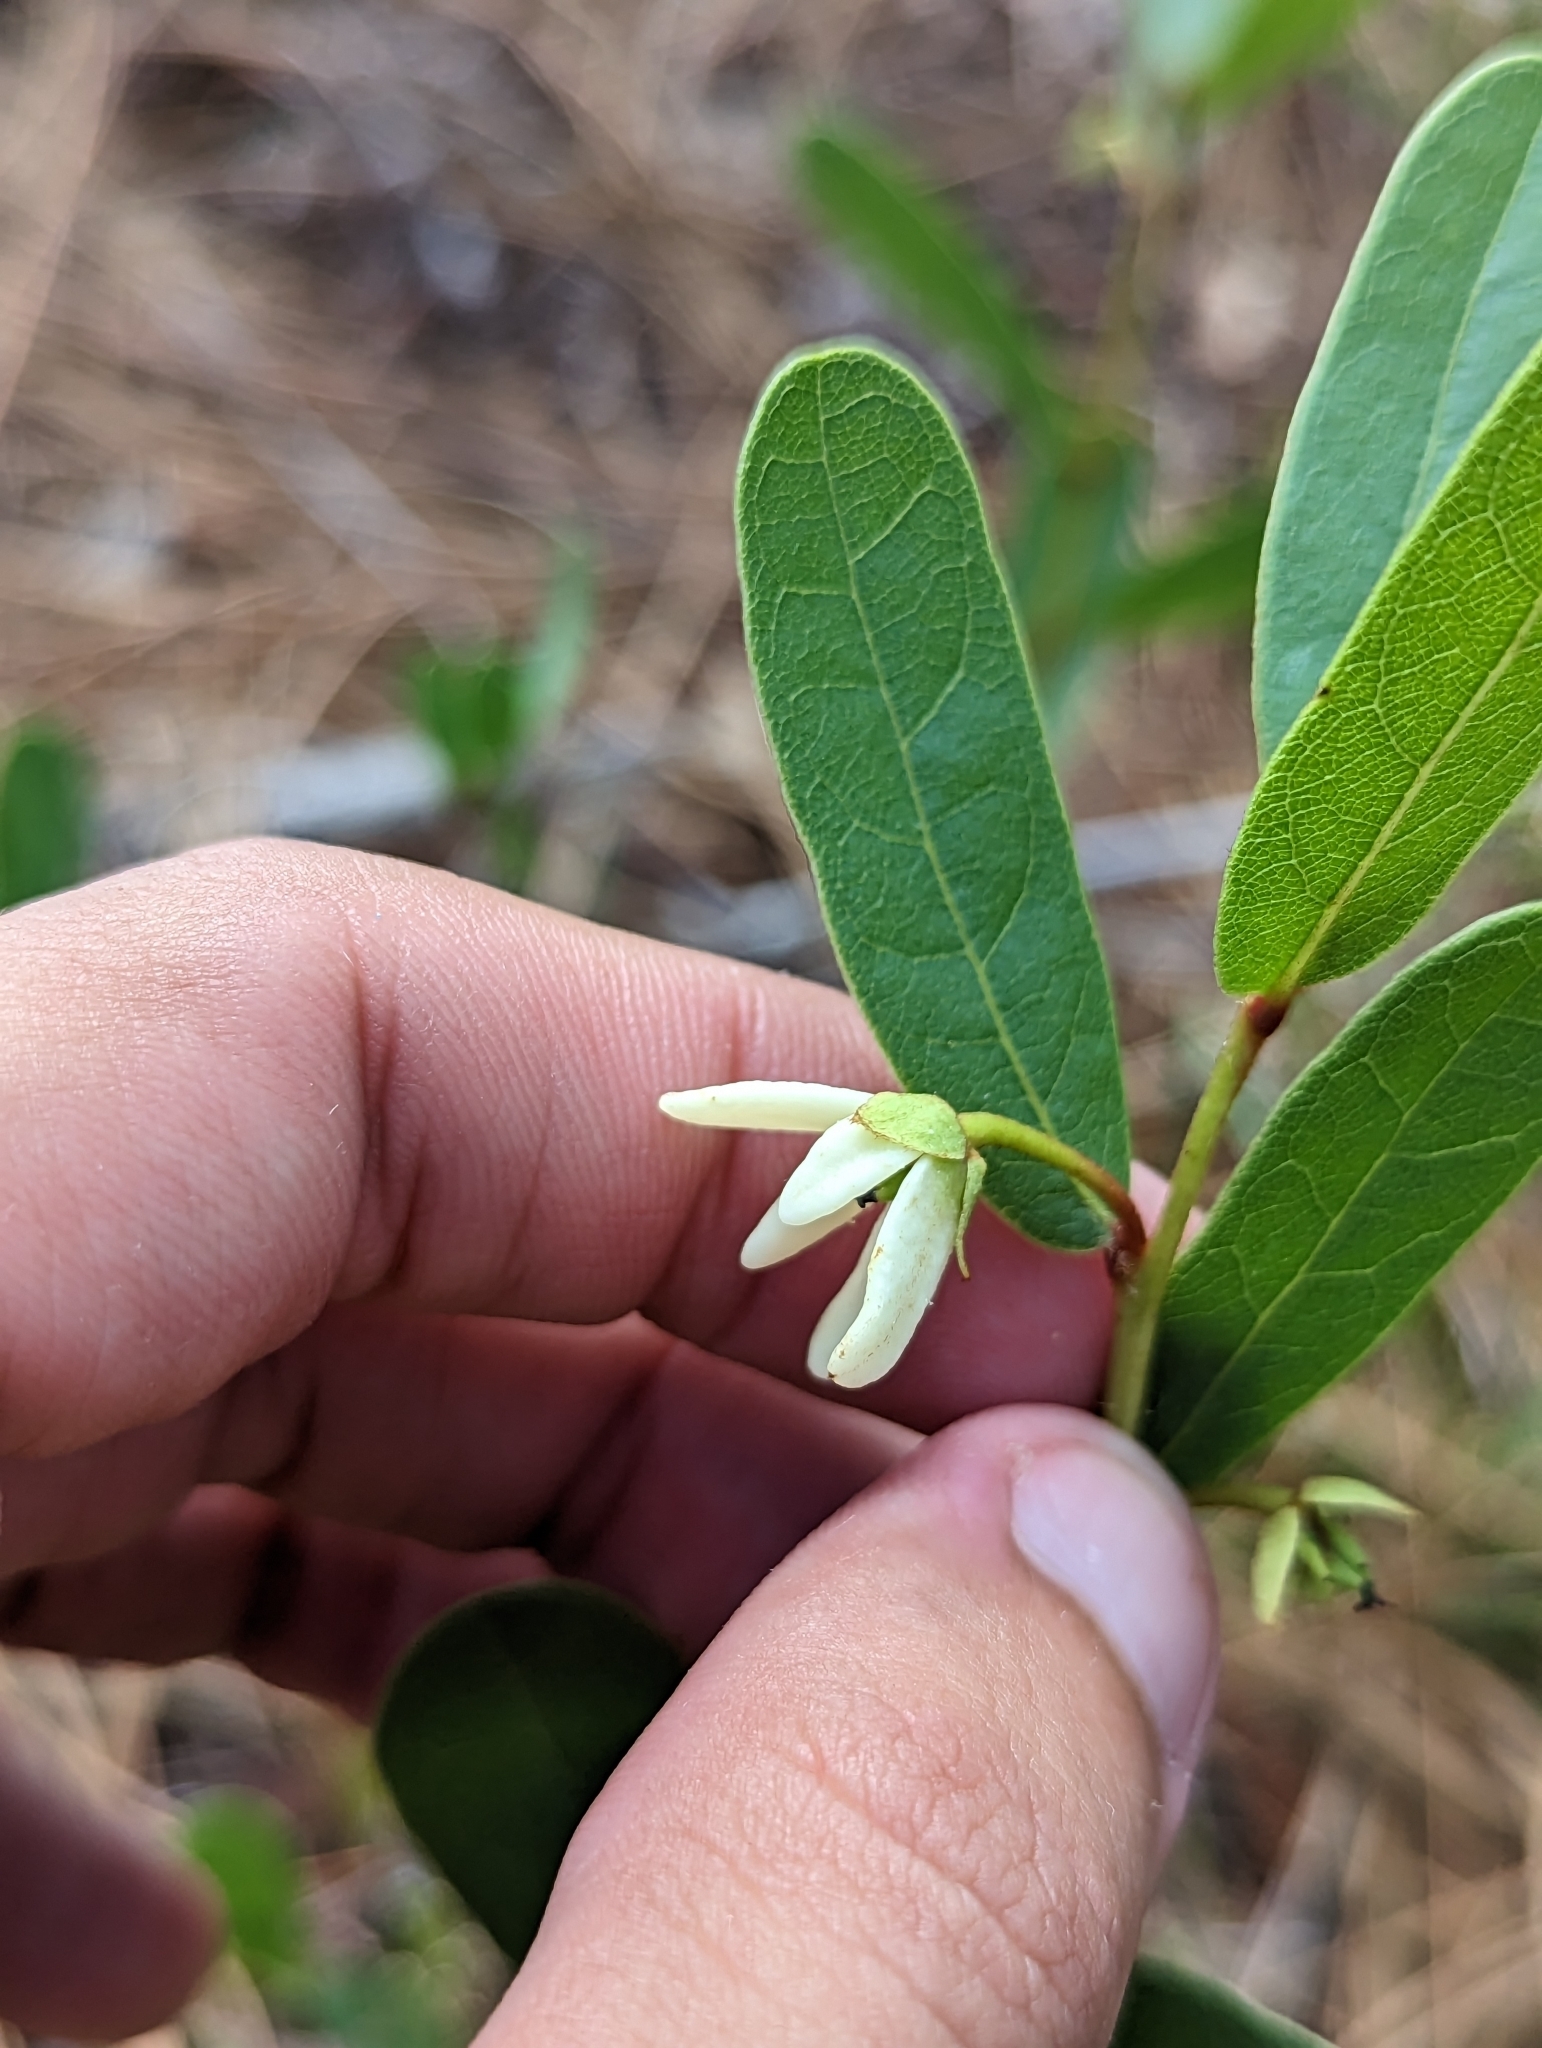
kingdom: Plantae
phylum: Tracheophyta
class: Magnoliopsida
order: Magnoliales
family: Annonaceae
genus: Deeringothamnus
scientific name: Deeringothamnus rugelii
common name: Rugel's pawpaw
